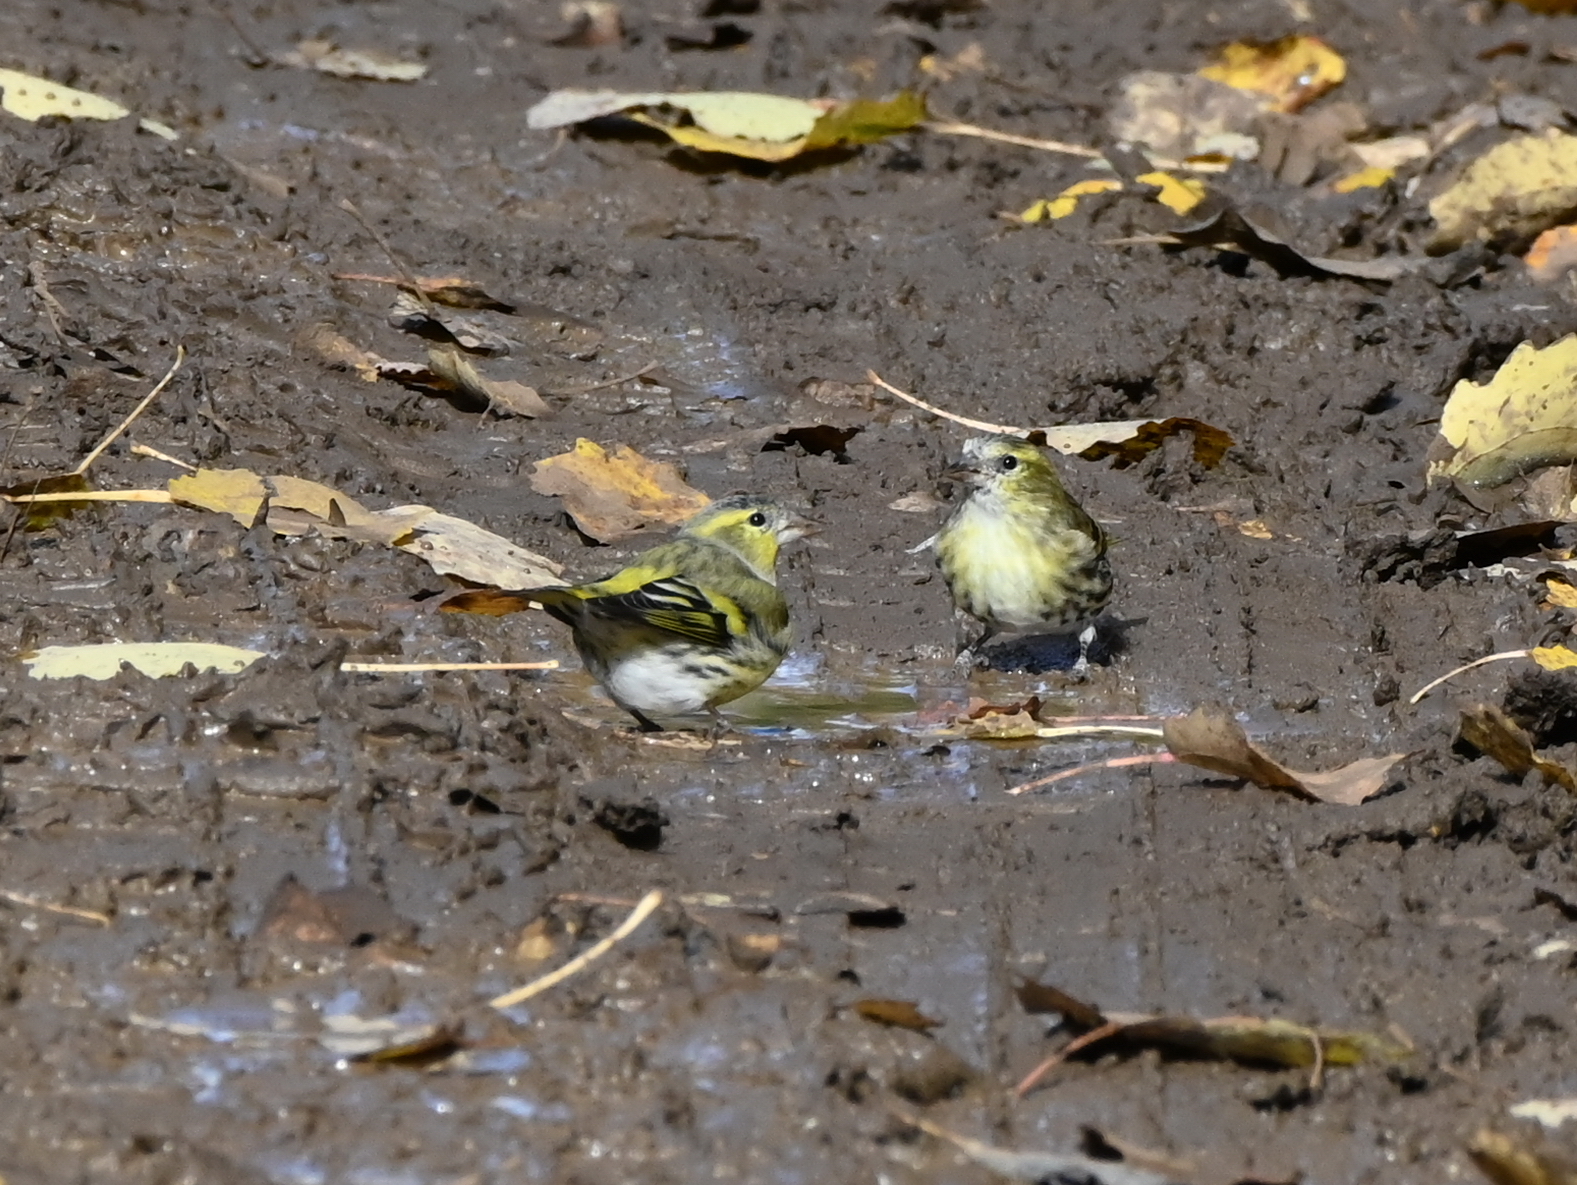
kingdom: Animalia
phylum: Chordata
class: Aves
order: Passeriformes
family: Fringillidae
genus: Spinus
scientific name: Spinus spinus
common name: Eurasian siskin
